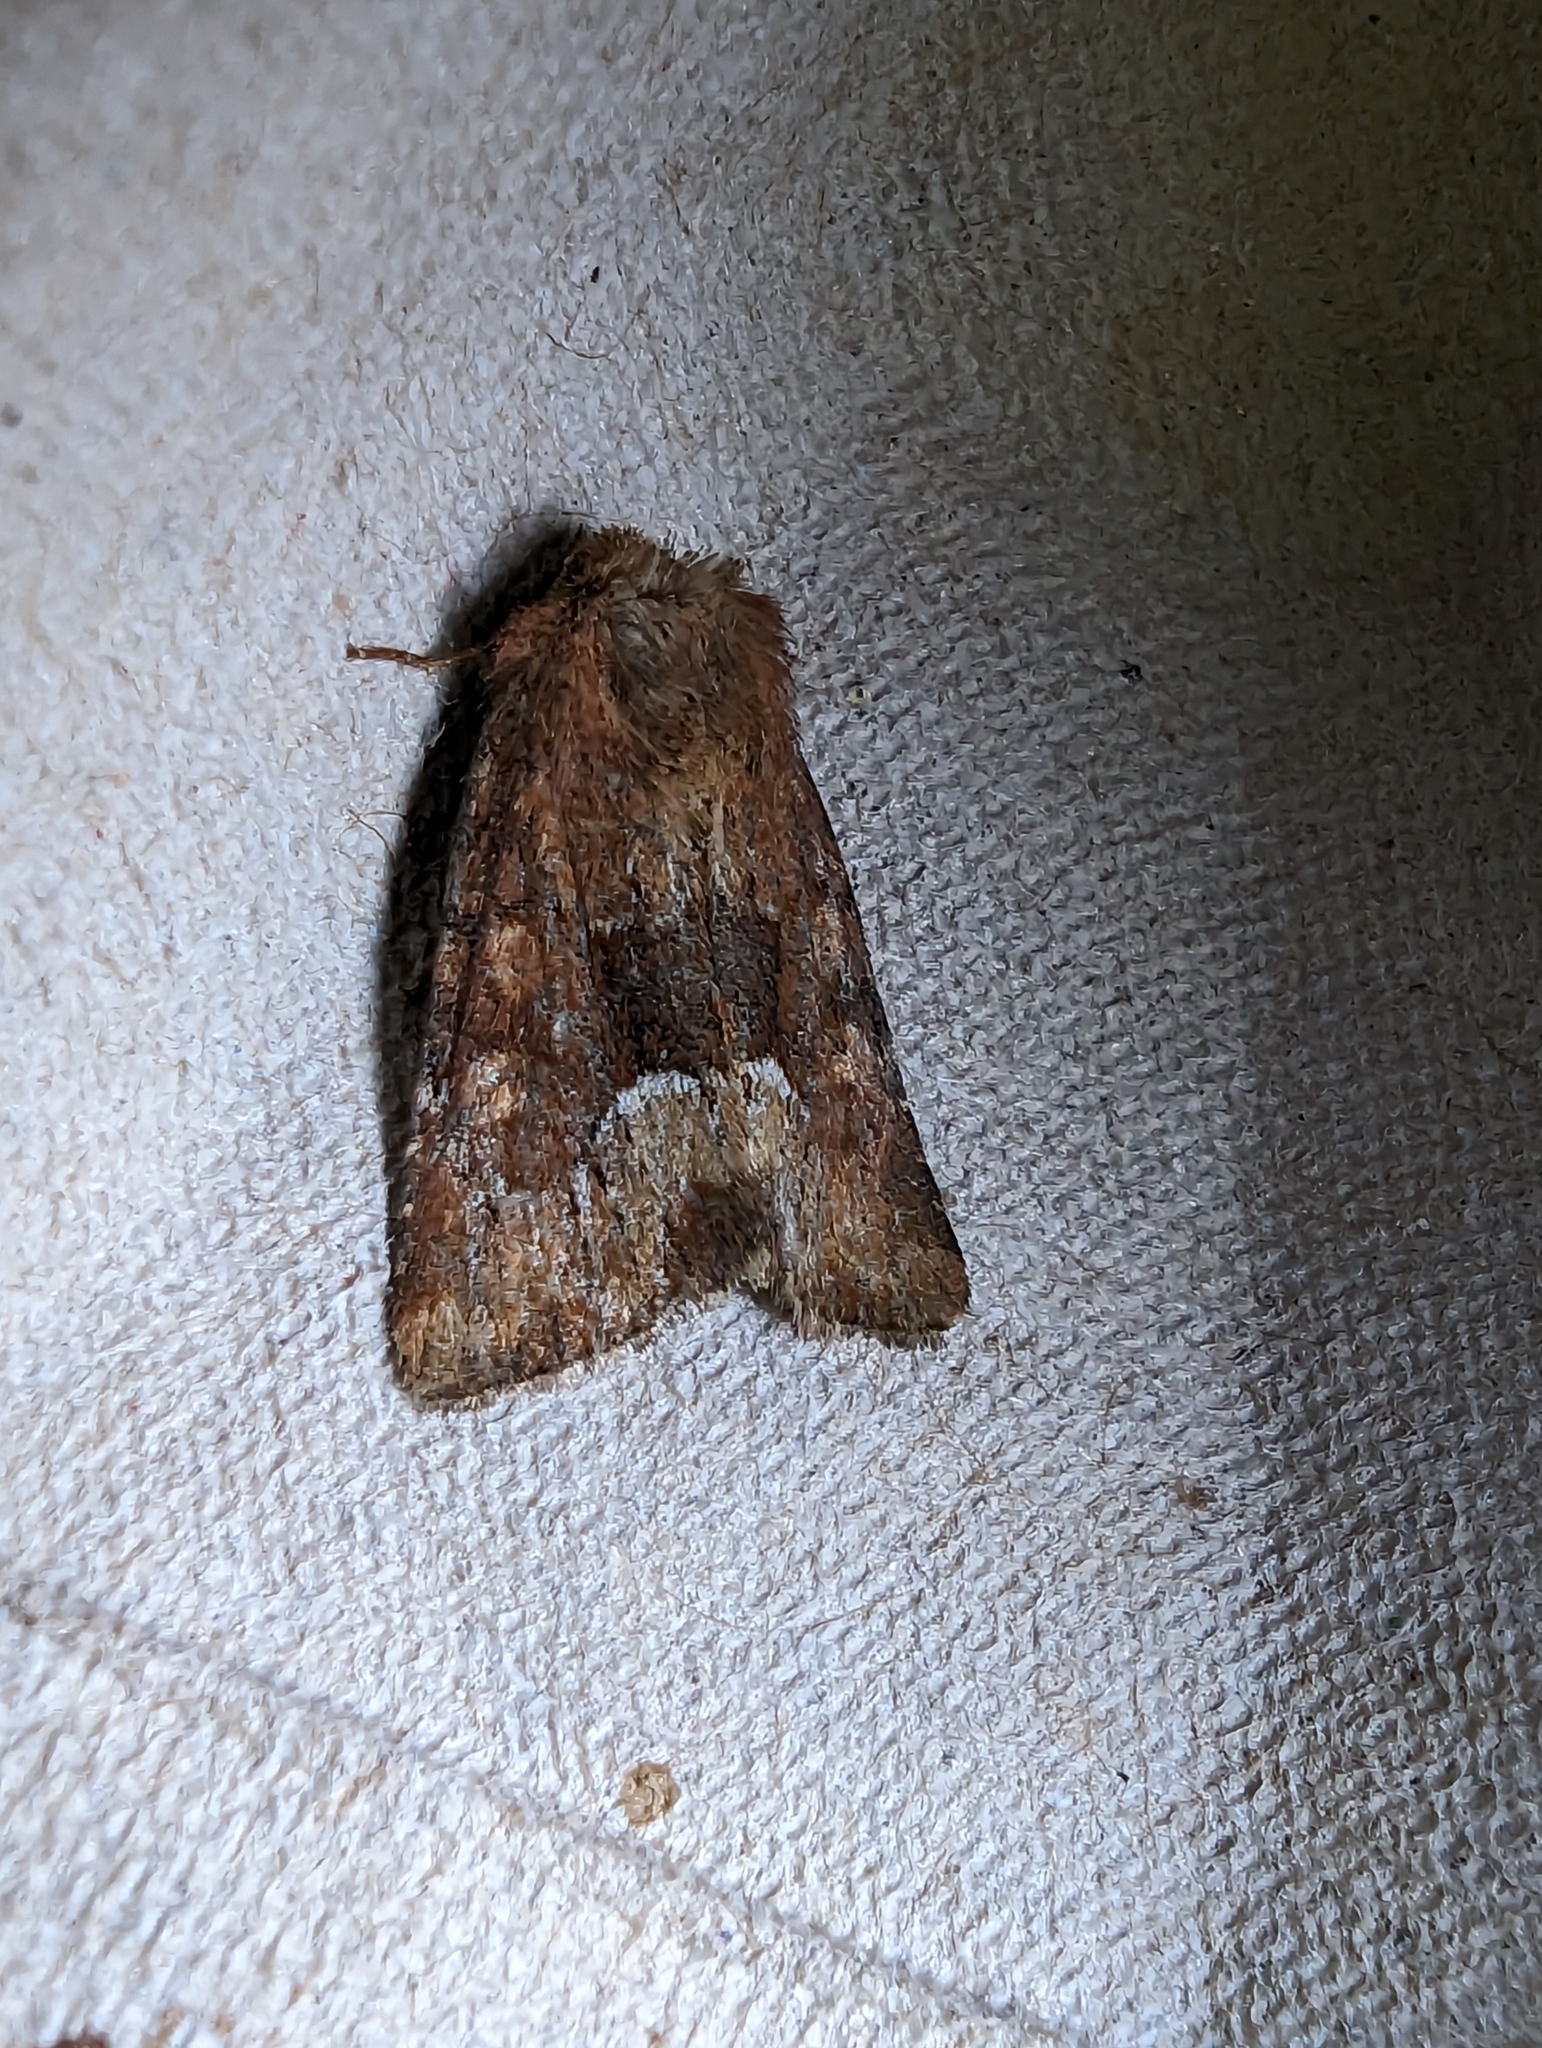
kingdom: Animalia
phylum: Arthropoda
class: Insecta
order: Lepidoptera
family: Noctuidae
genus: Oligia
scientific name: Oligia fasciuncula
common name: Middle-barred minor
